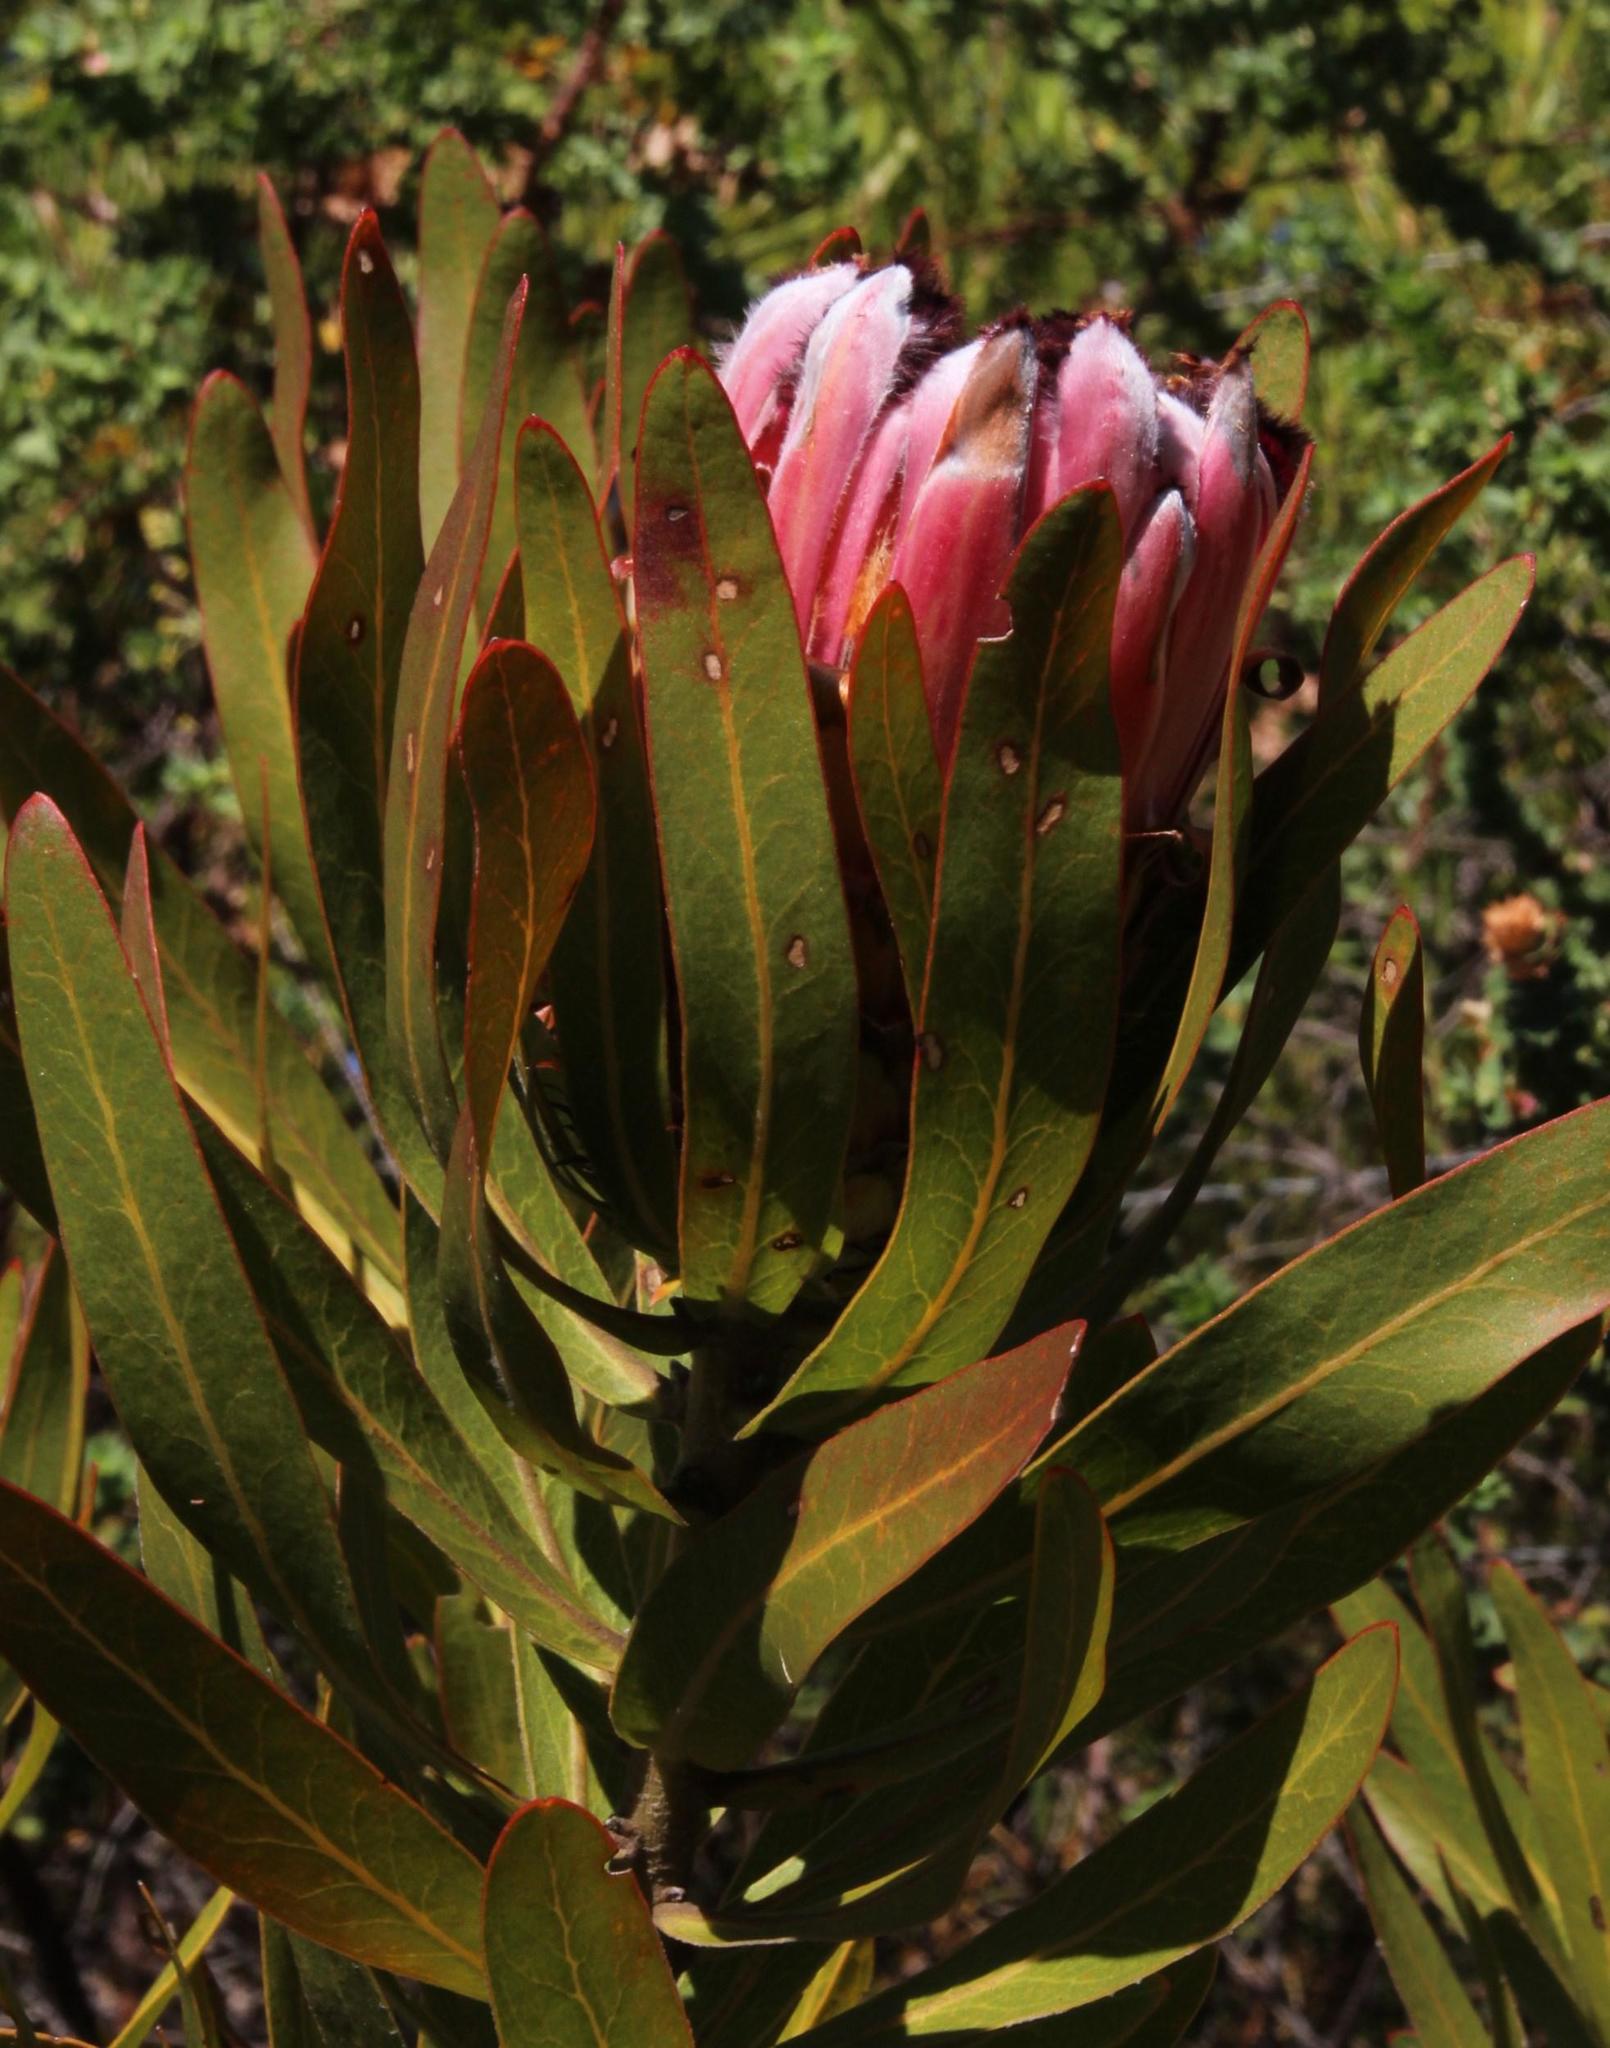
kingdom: Plantae
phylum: Tracheophyta
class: Magnoliopsida
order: Proteales
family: Proteaceae
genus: Protea
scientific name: Protea neriifolia
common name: Blue sugarbush
